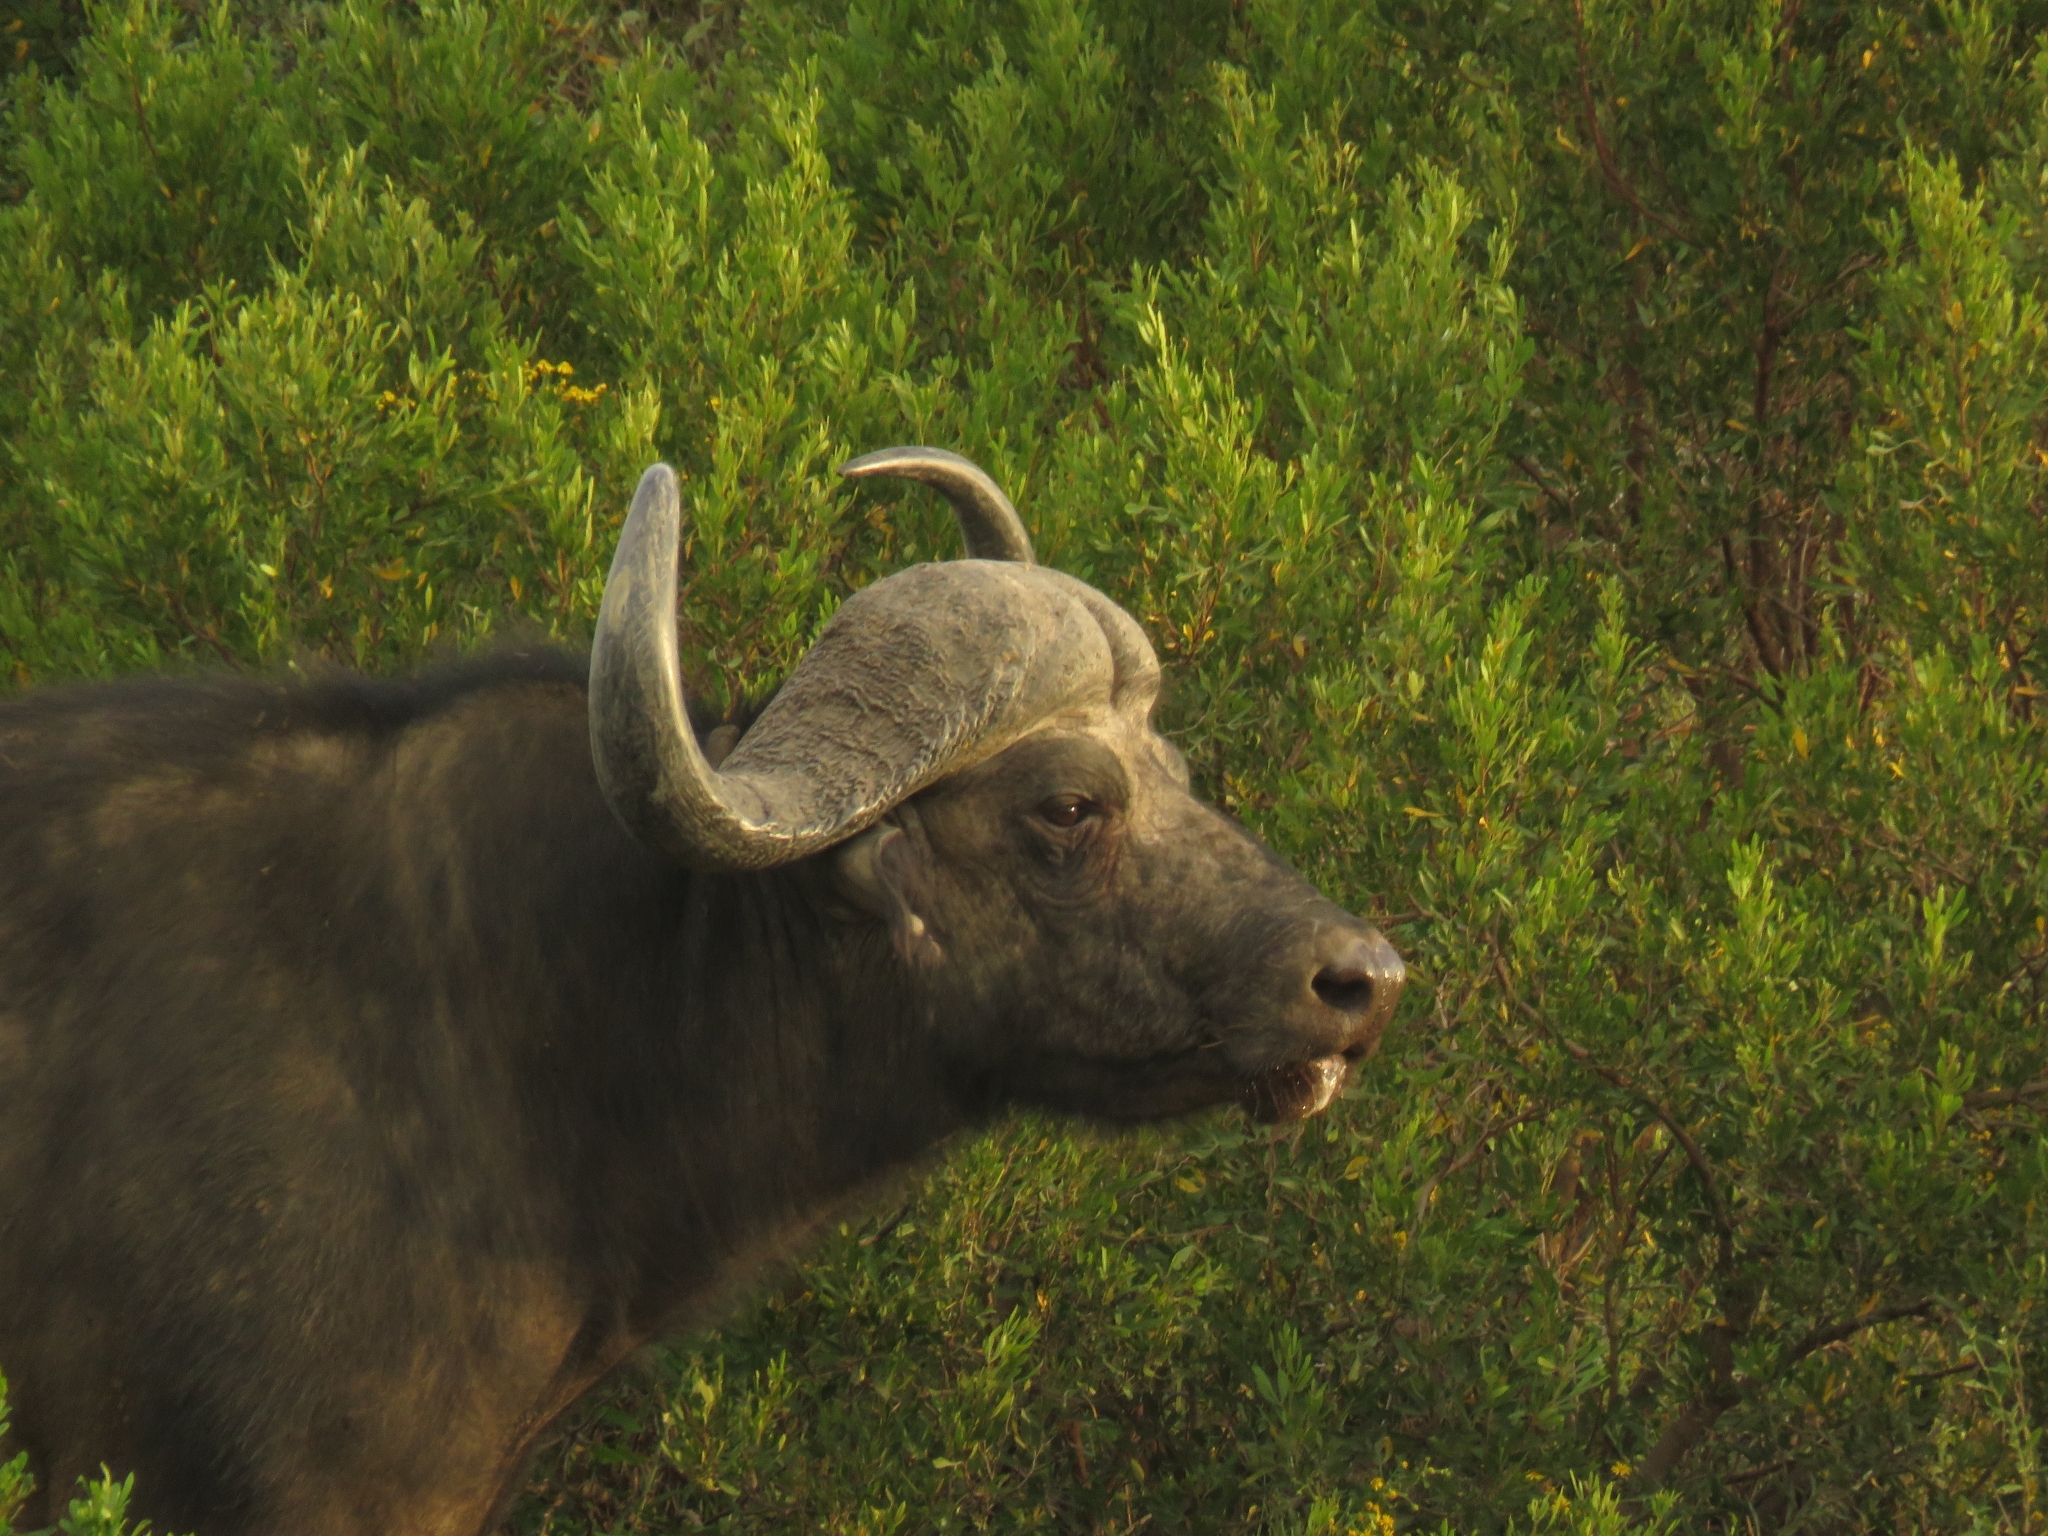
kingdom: Animalia
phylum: Chordata
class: Mammalia
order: Artiodactyla
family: Bovidae
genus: Syncerus
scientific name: Syncerus caffer
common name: African buffalo
